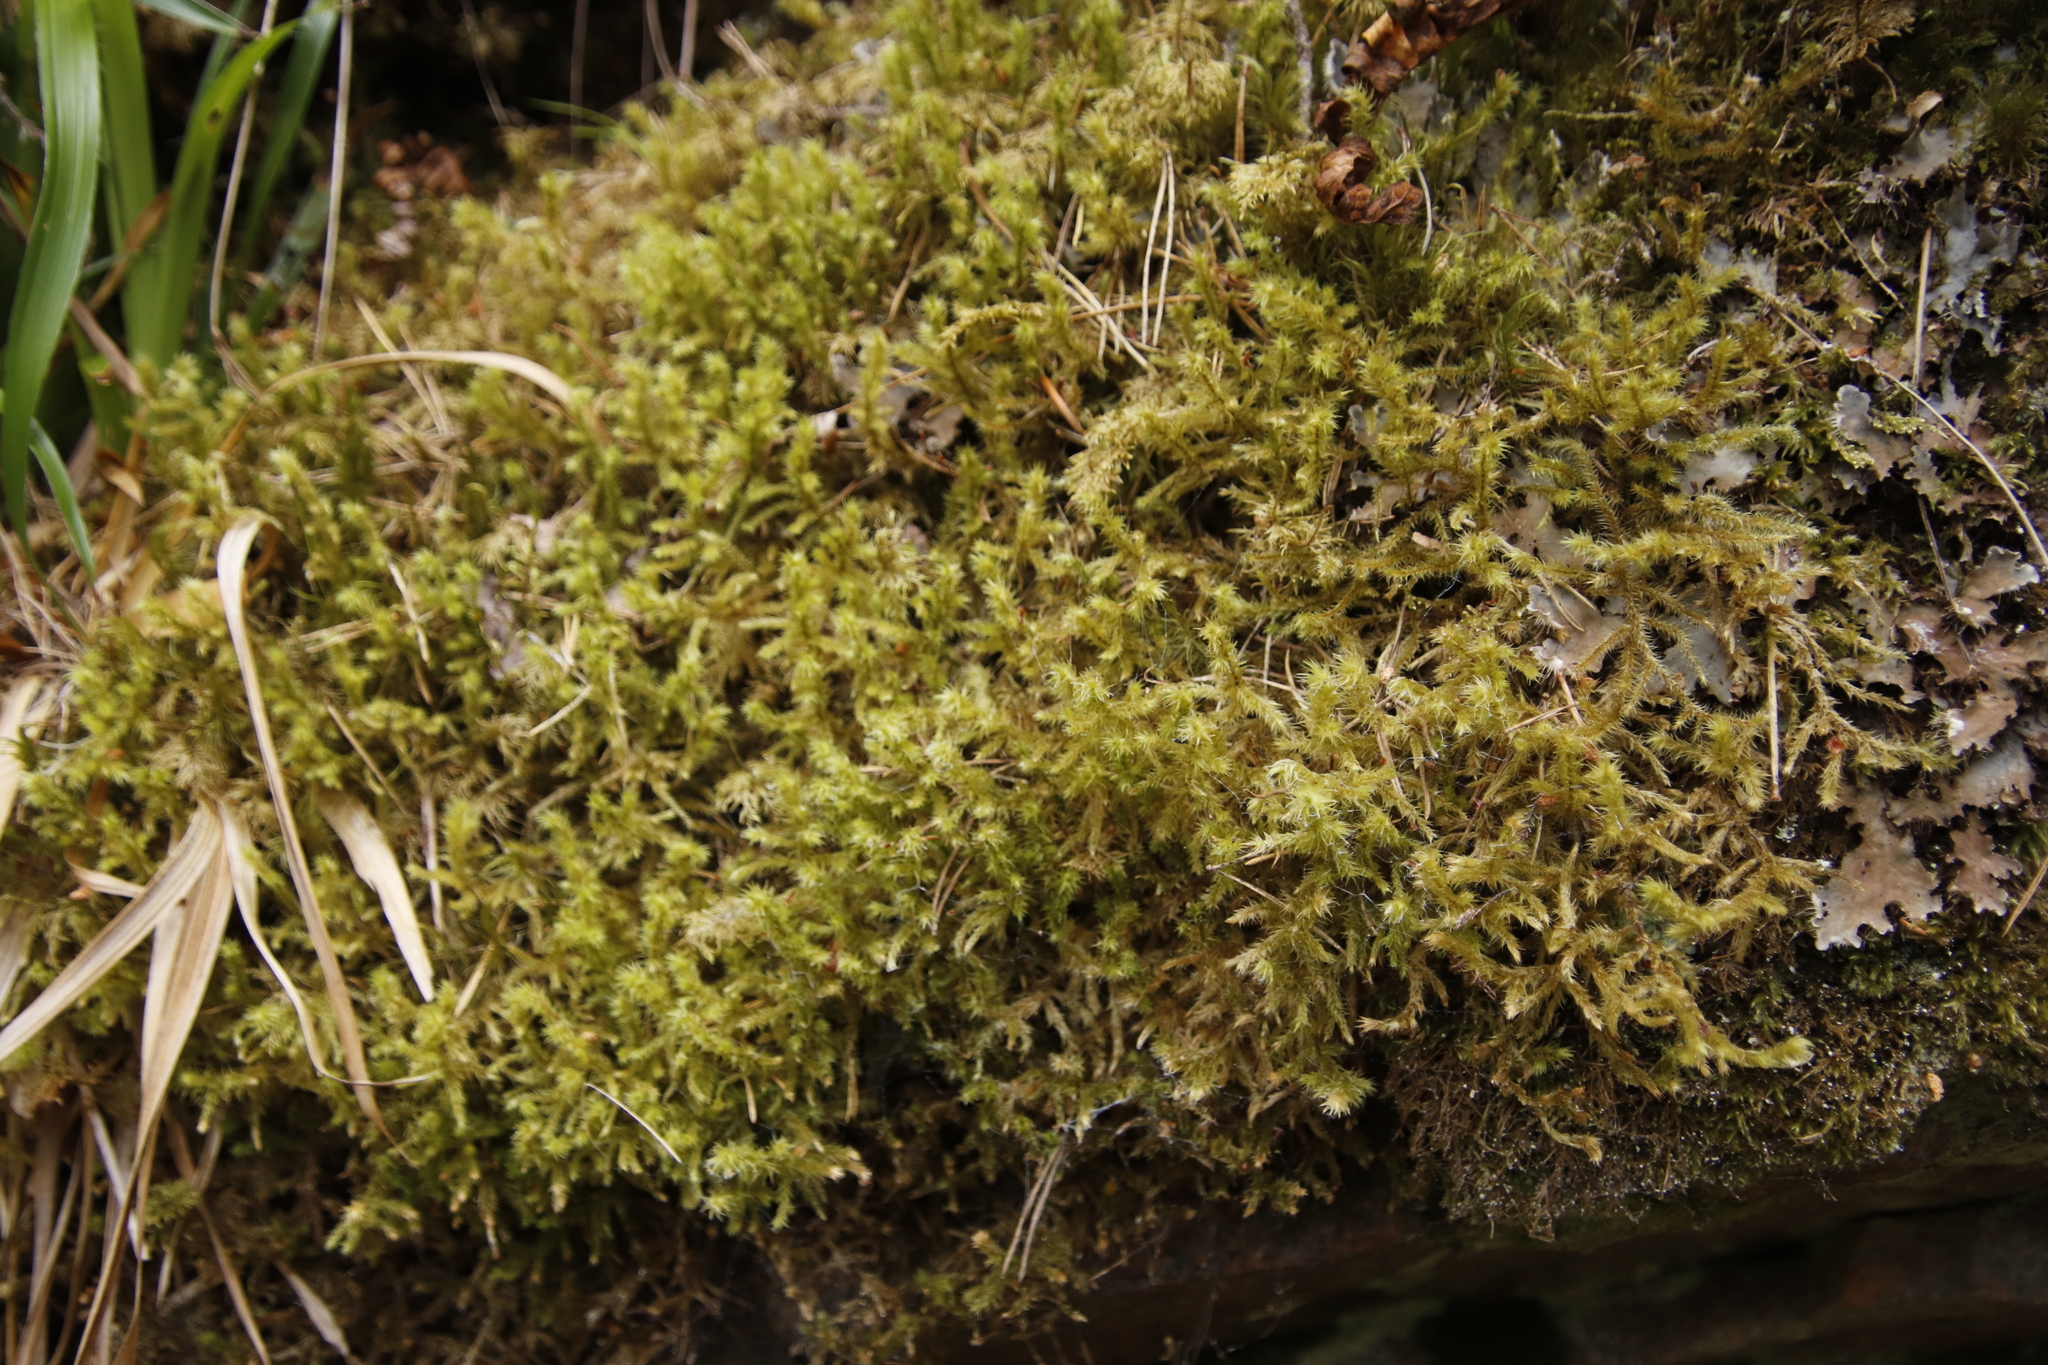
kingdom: Plantae
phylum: Bryophyta
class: Bryopsida
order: Hypnales
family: Hylocomiaceae
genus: Hylocomiadelphus
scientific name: Hylocomiadelphus triquetrus
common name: Rough goose neck moss
